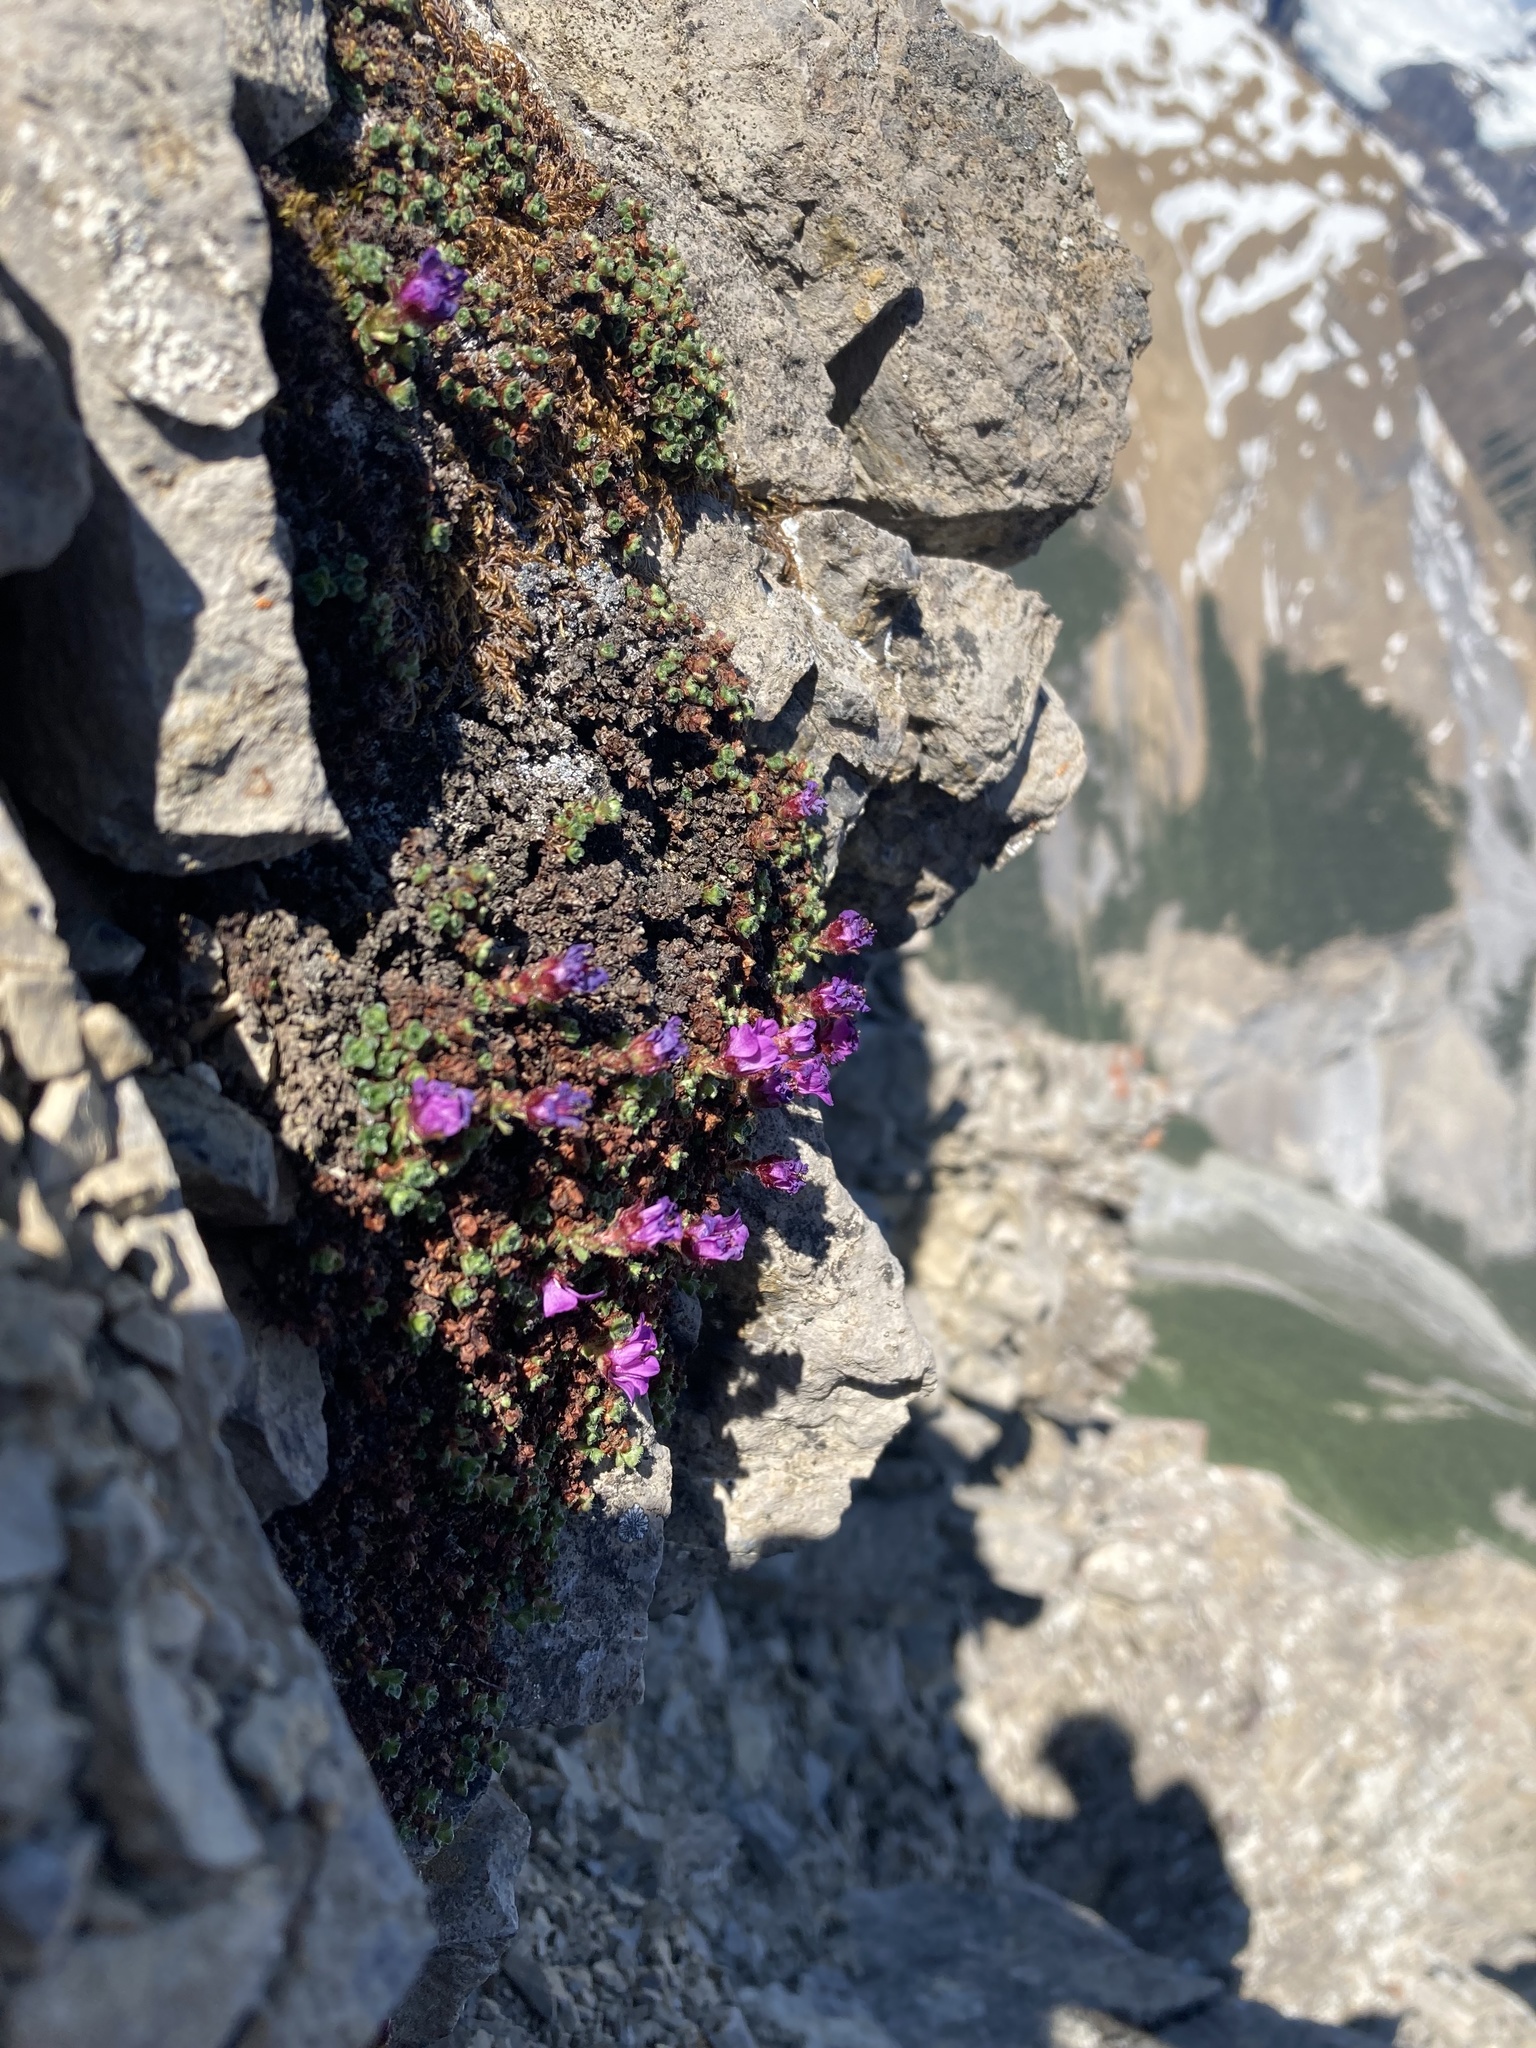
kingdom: Plantae
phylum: Tracheophyta
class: Magnoliopsida
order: Saxifragales
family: Saxifragaceae
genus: Saxifraga
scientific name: Saxifraga oppositifolia
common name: Purple saxifrage
